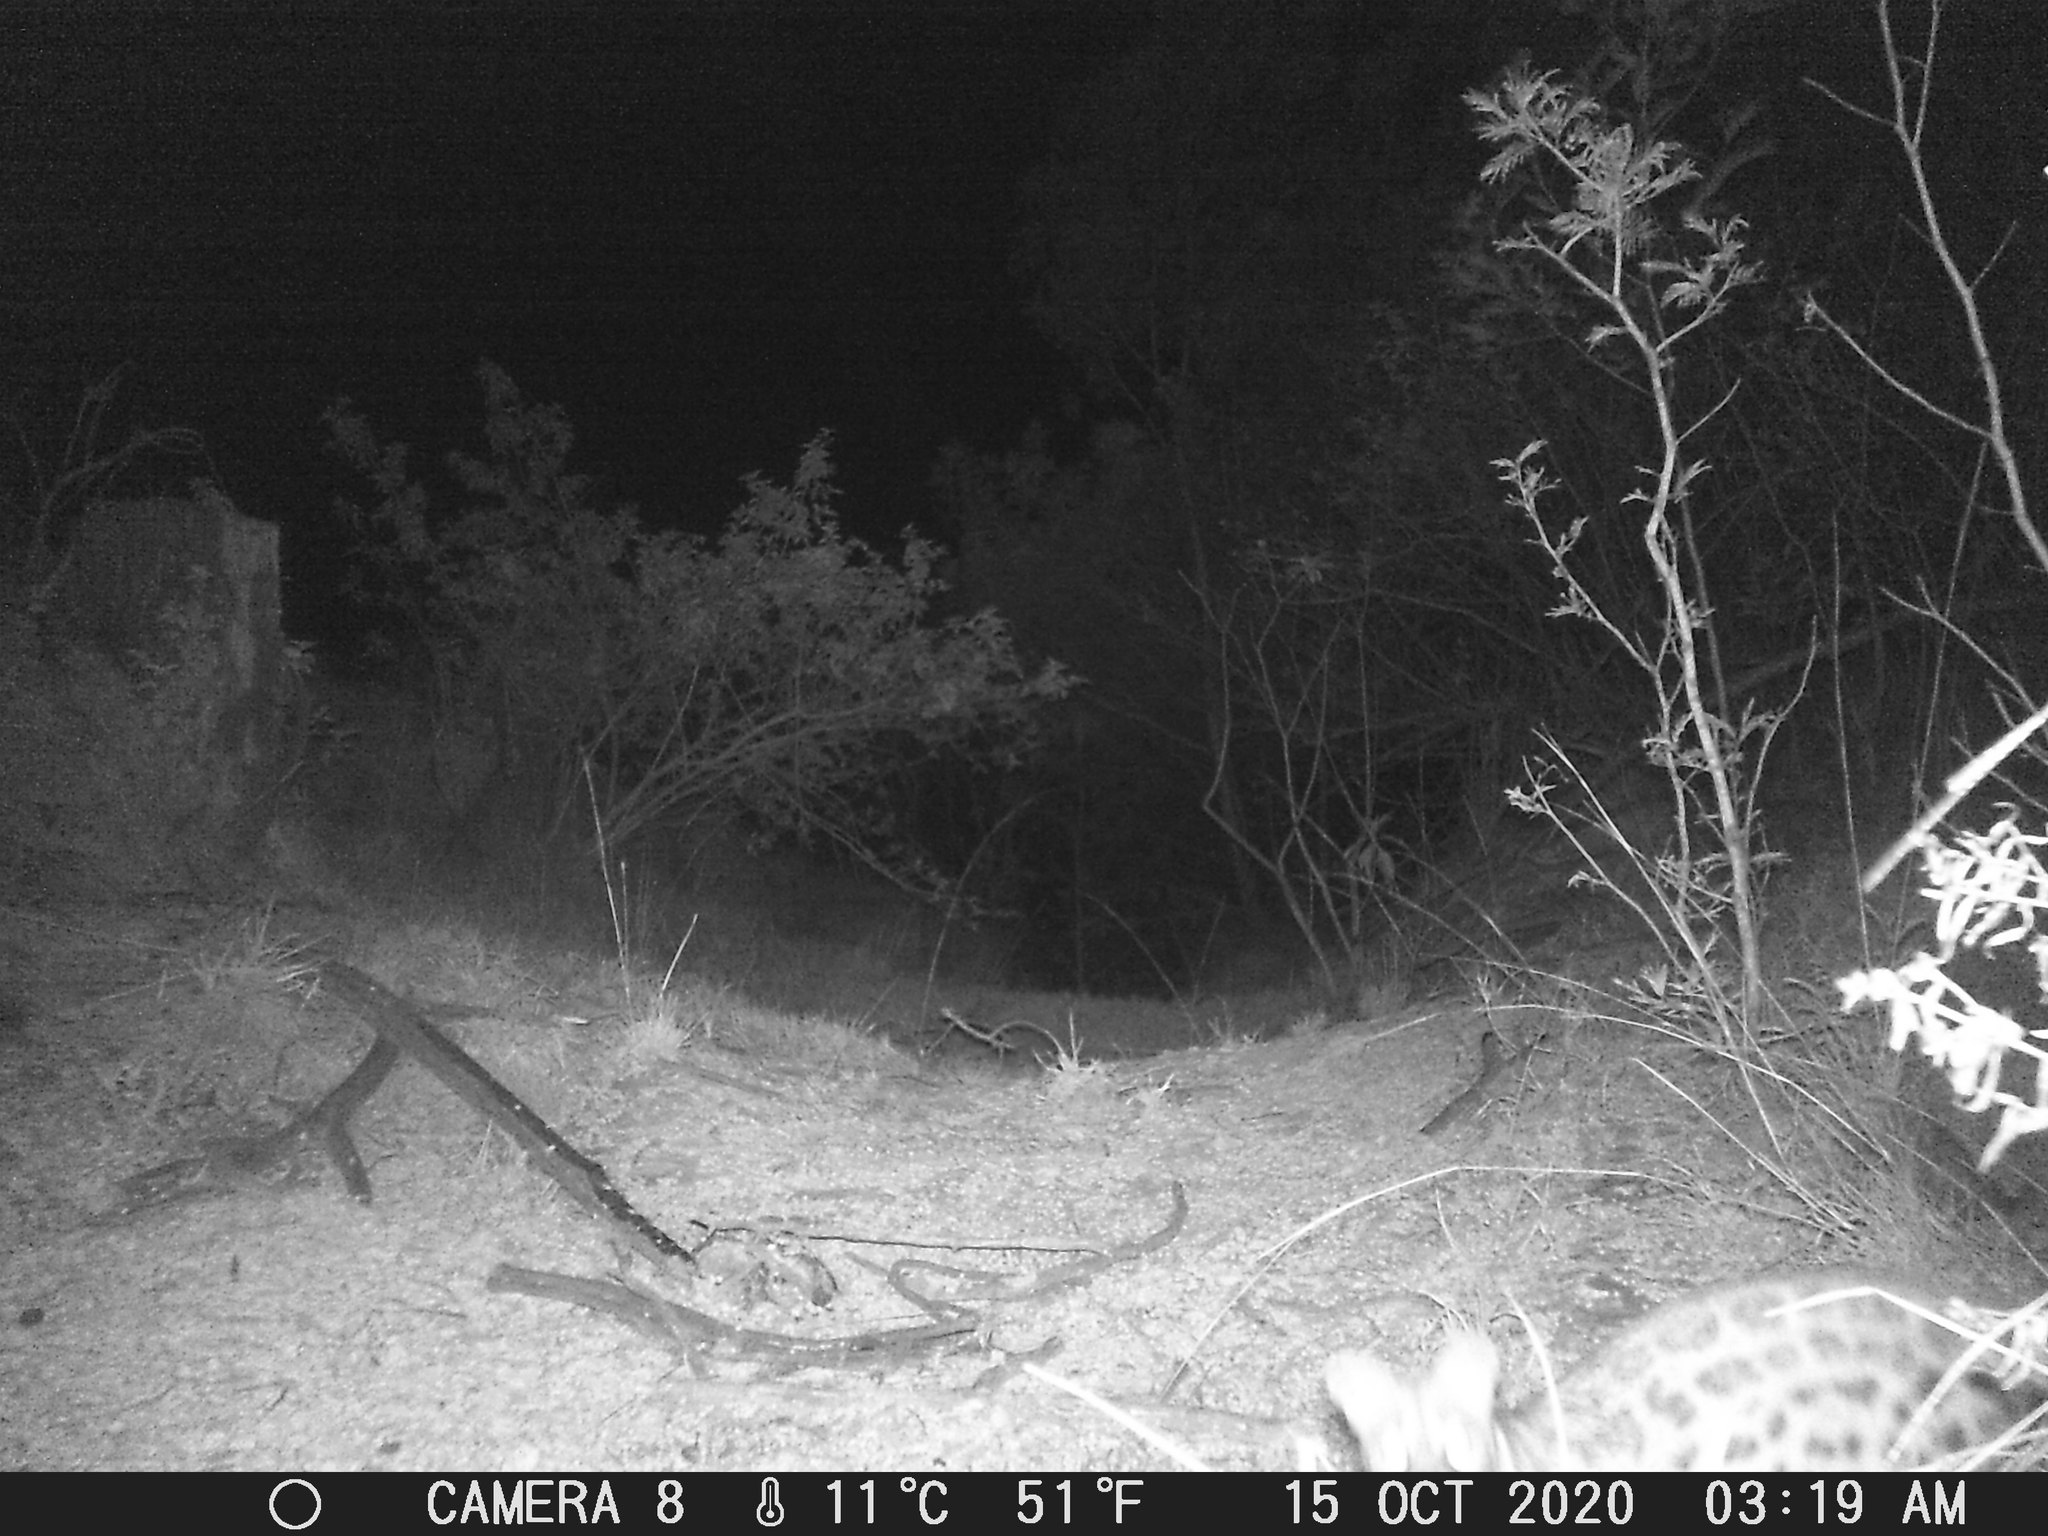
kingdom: Animalia
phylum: Chordata
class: Mammalia
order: Carnivora
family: Viverridae
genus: Genetta
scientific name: Genetta maculata
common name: Rusty-spotted genet
